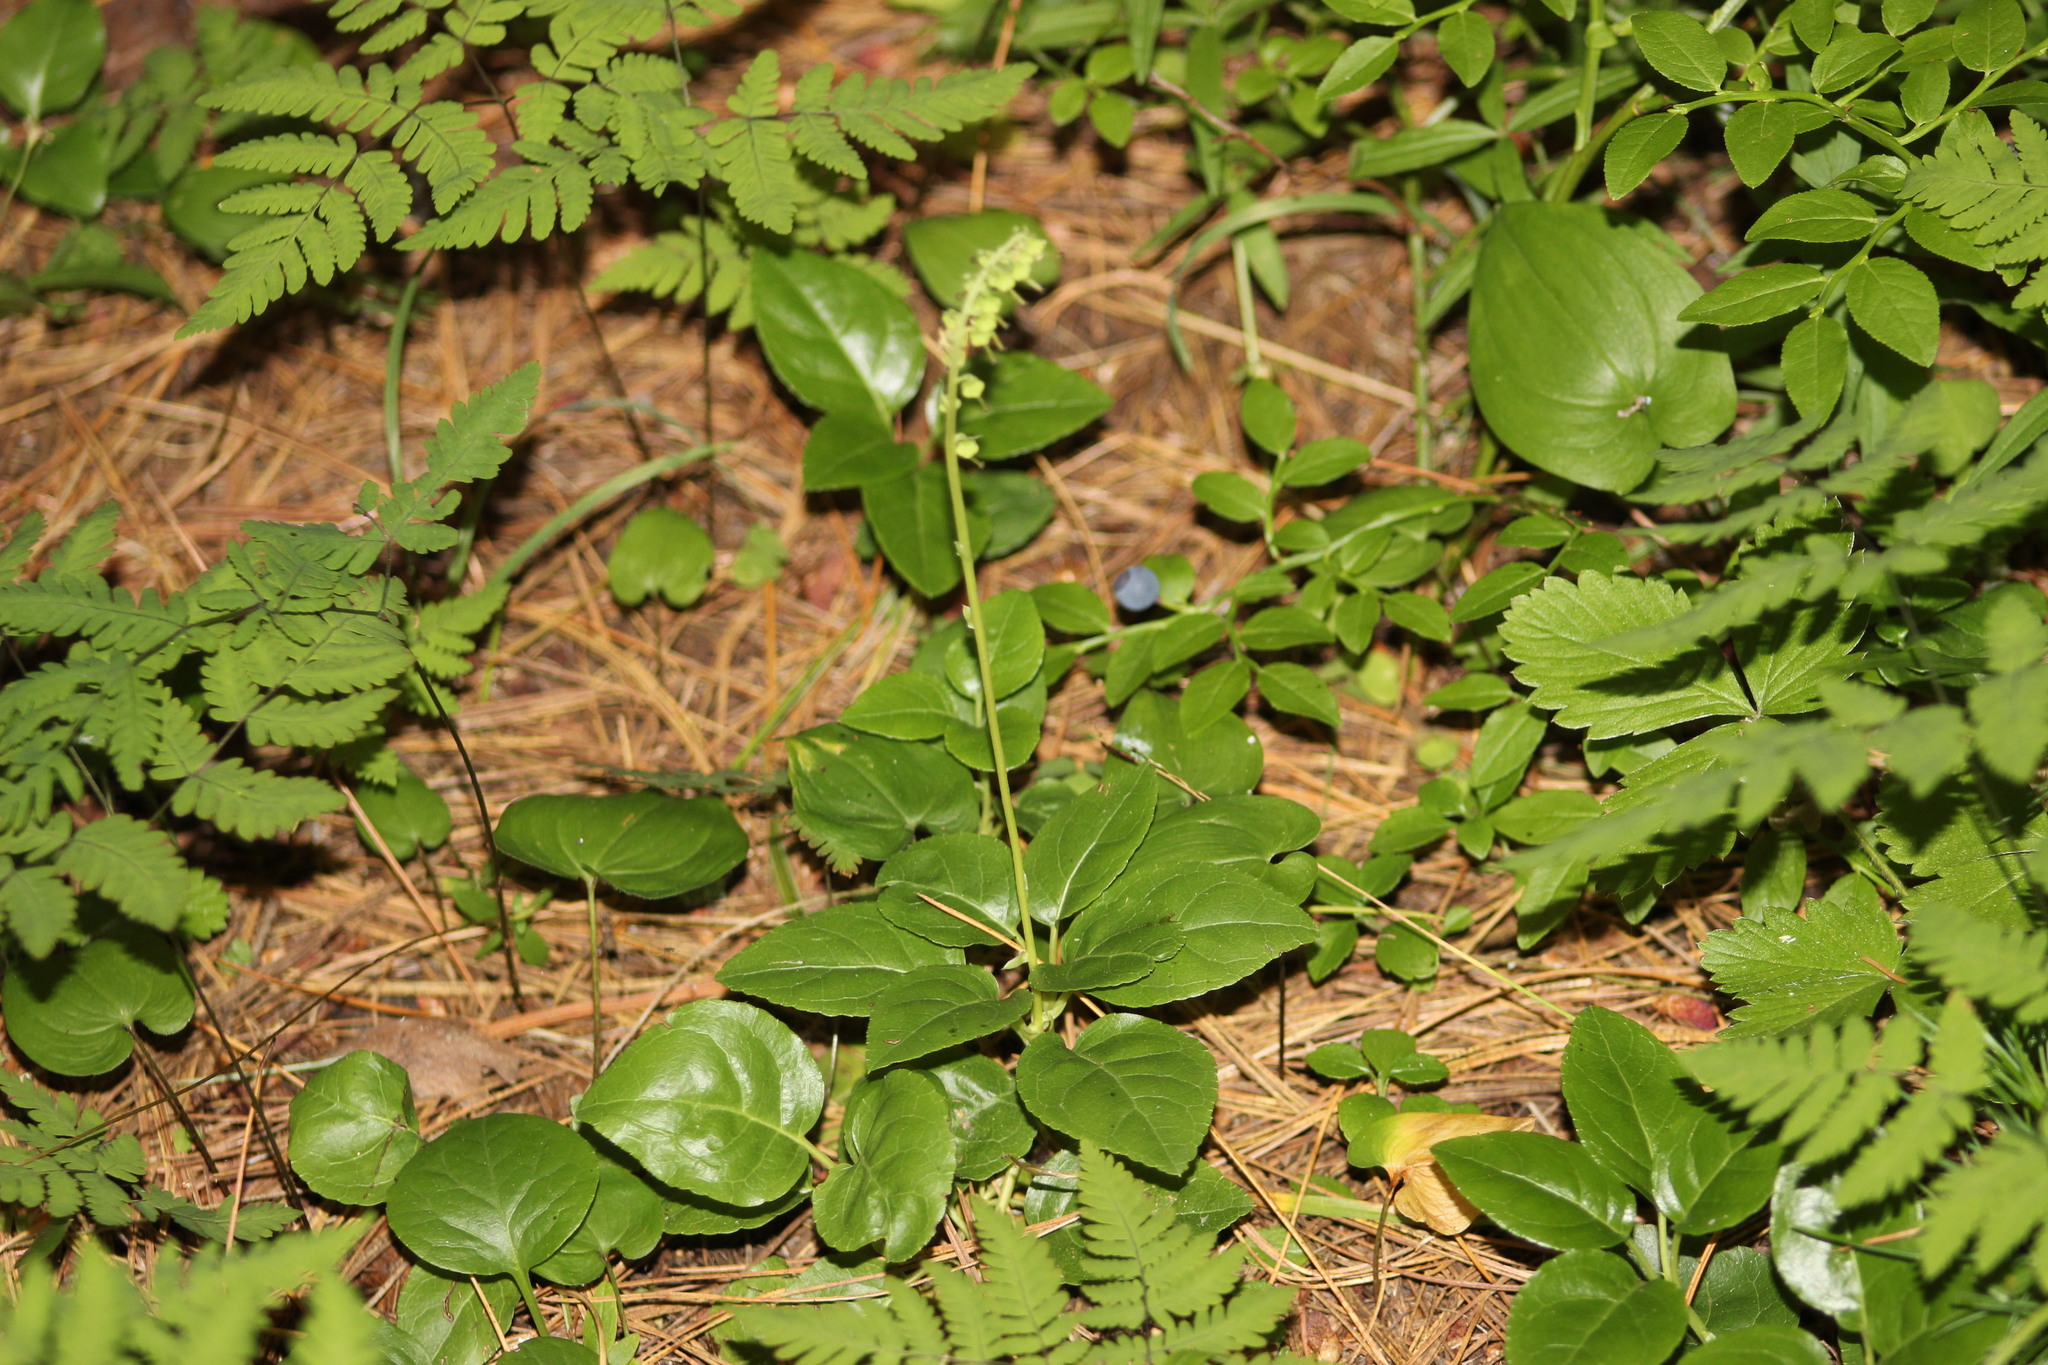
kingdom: Plantae
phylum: Tracheophyta
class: Magnoliopsida
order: Ericales
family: Ericaceae
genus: Orthilia
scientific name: Orthilia secunda
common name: One-sided orthilia
